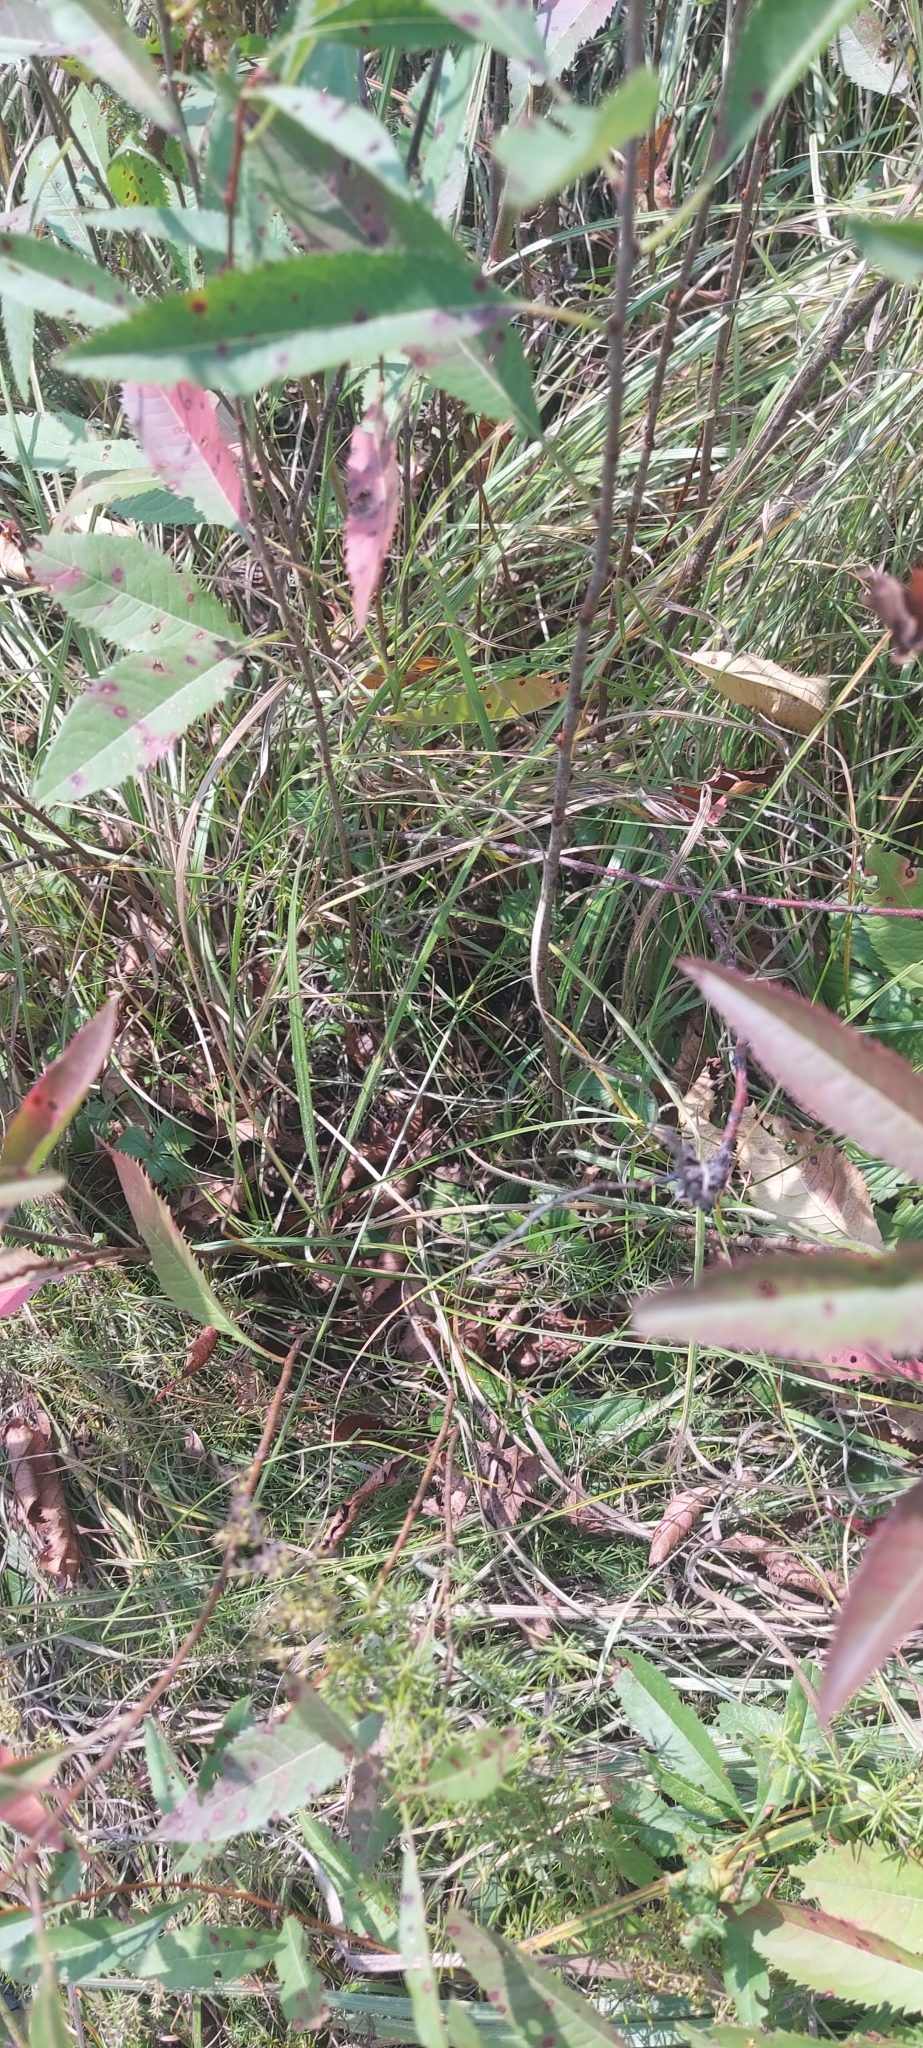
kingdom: Plantae
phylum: Tracheophyta
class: Magnoliopsida
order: Rosales
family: Rosaceae
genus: Prunus
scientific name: Prunus tenella
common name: Dwarf russian almond
